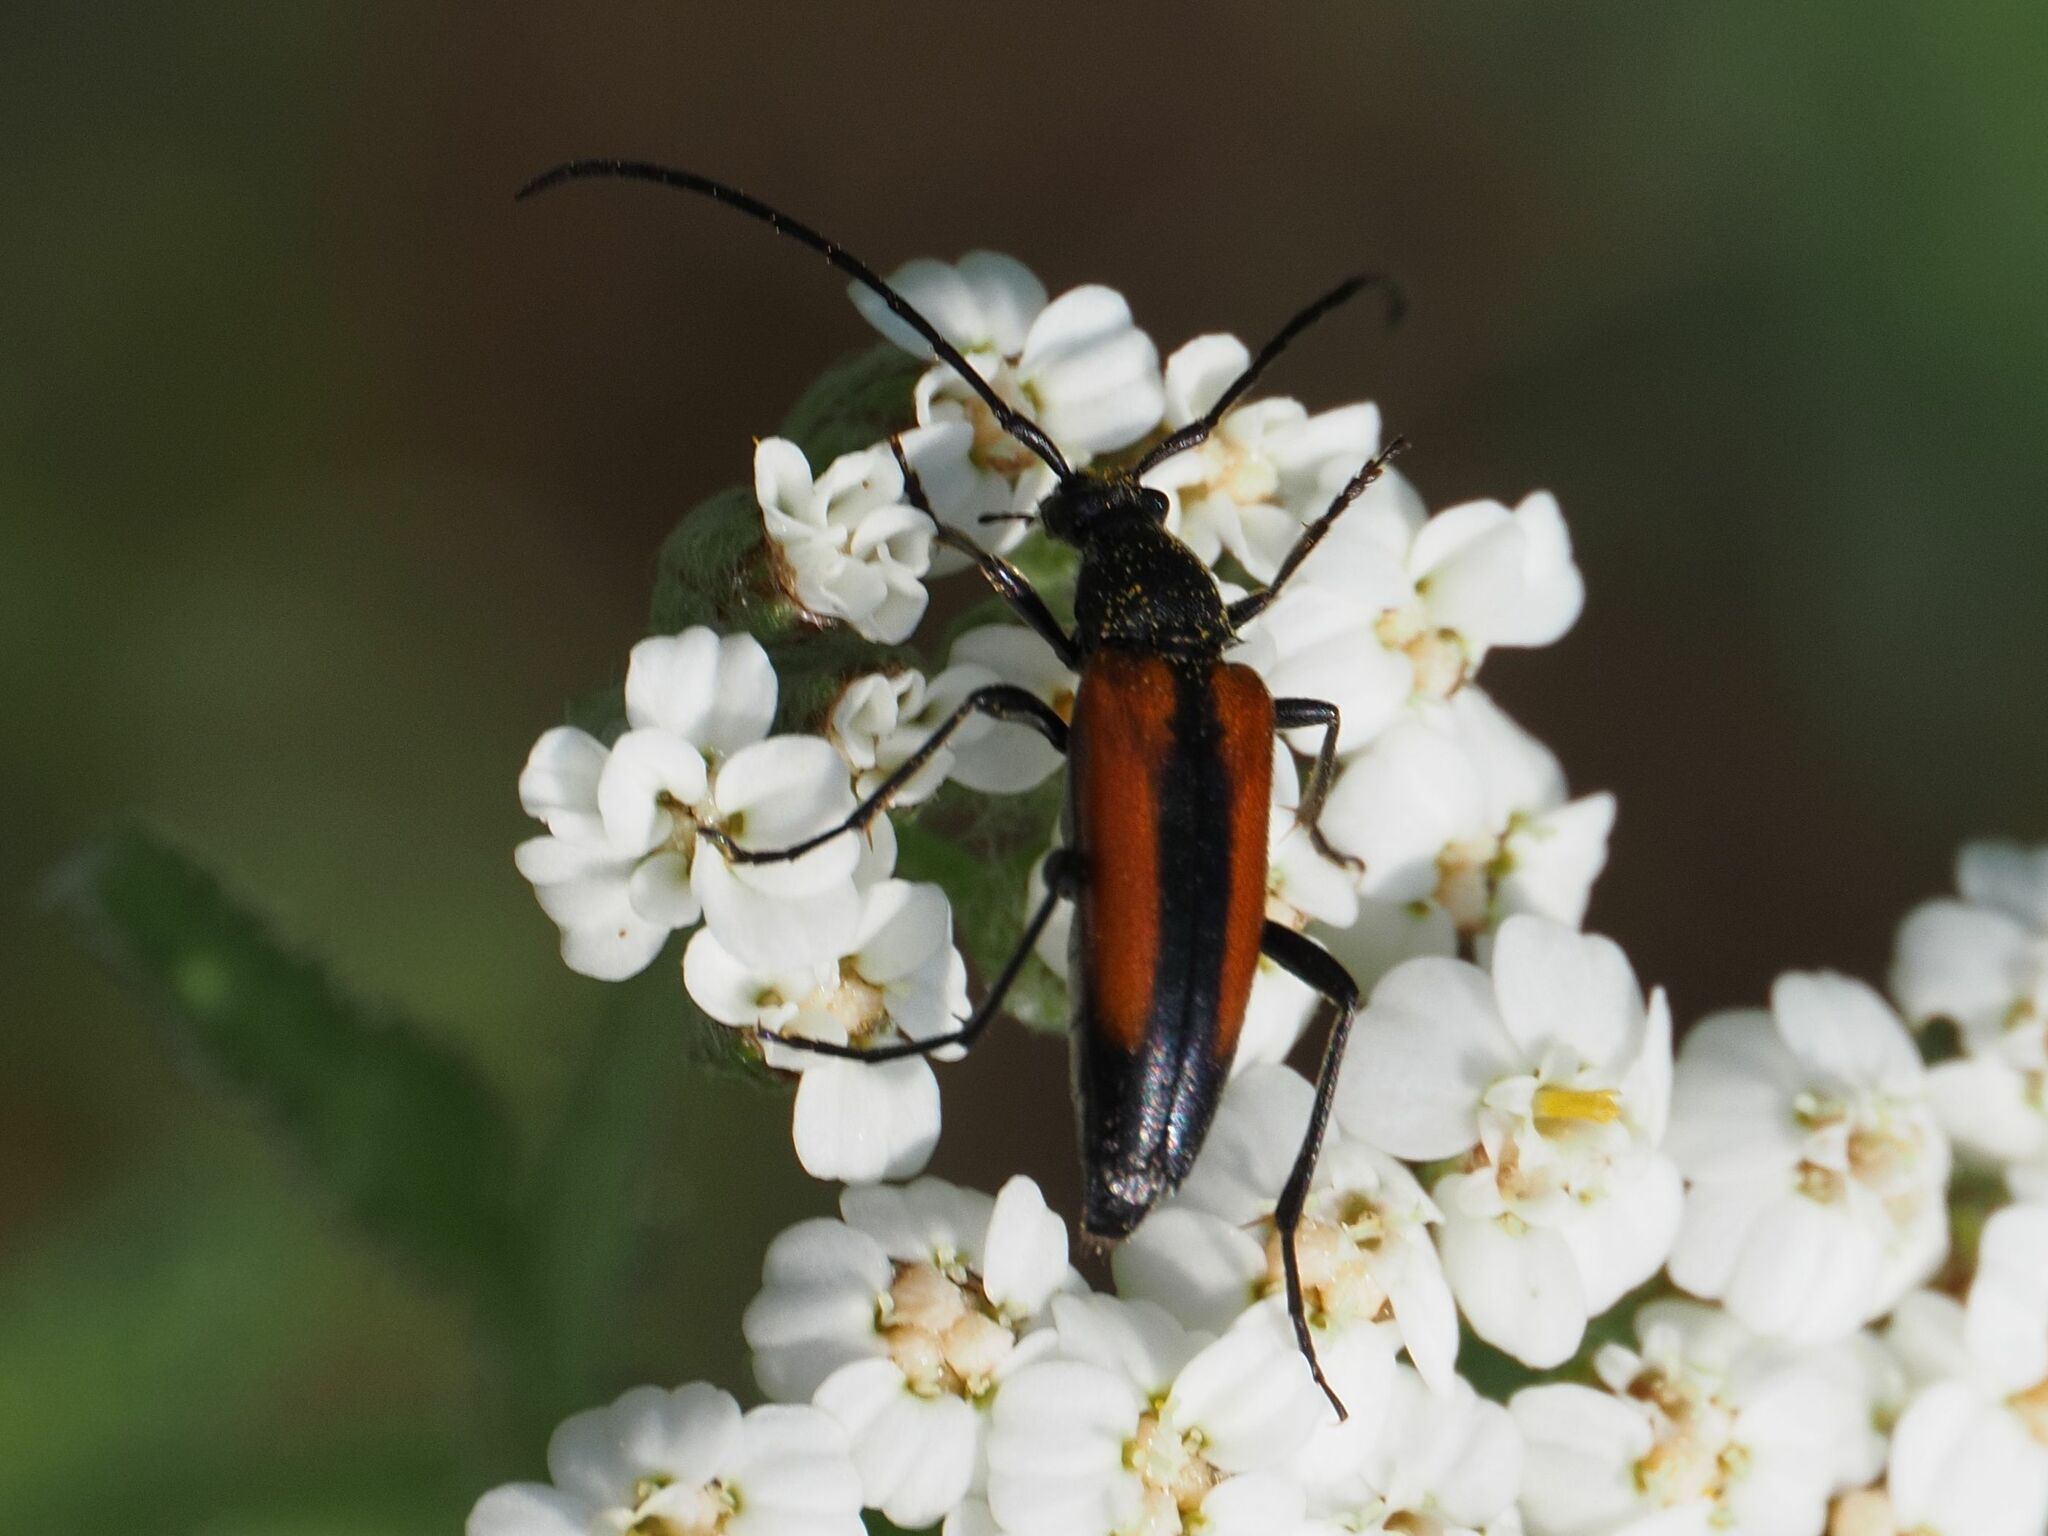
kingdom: Animalia
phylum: Arthropoda
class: Insecta
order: Coleoptera
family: Cerambycidae
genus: Stenurella
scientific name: Stenurella melanura
